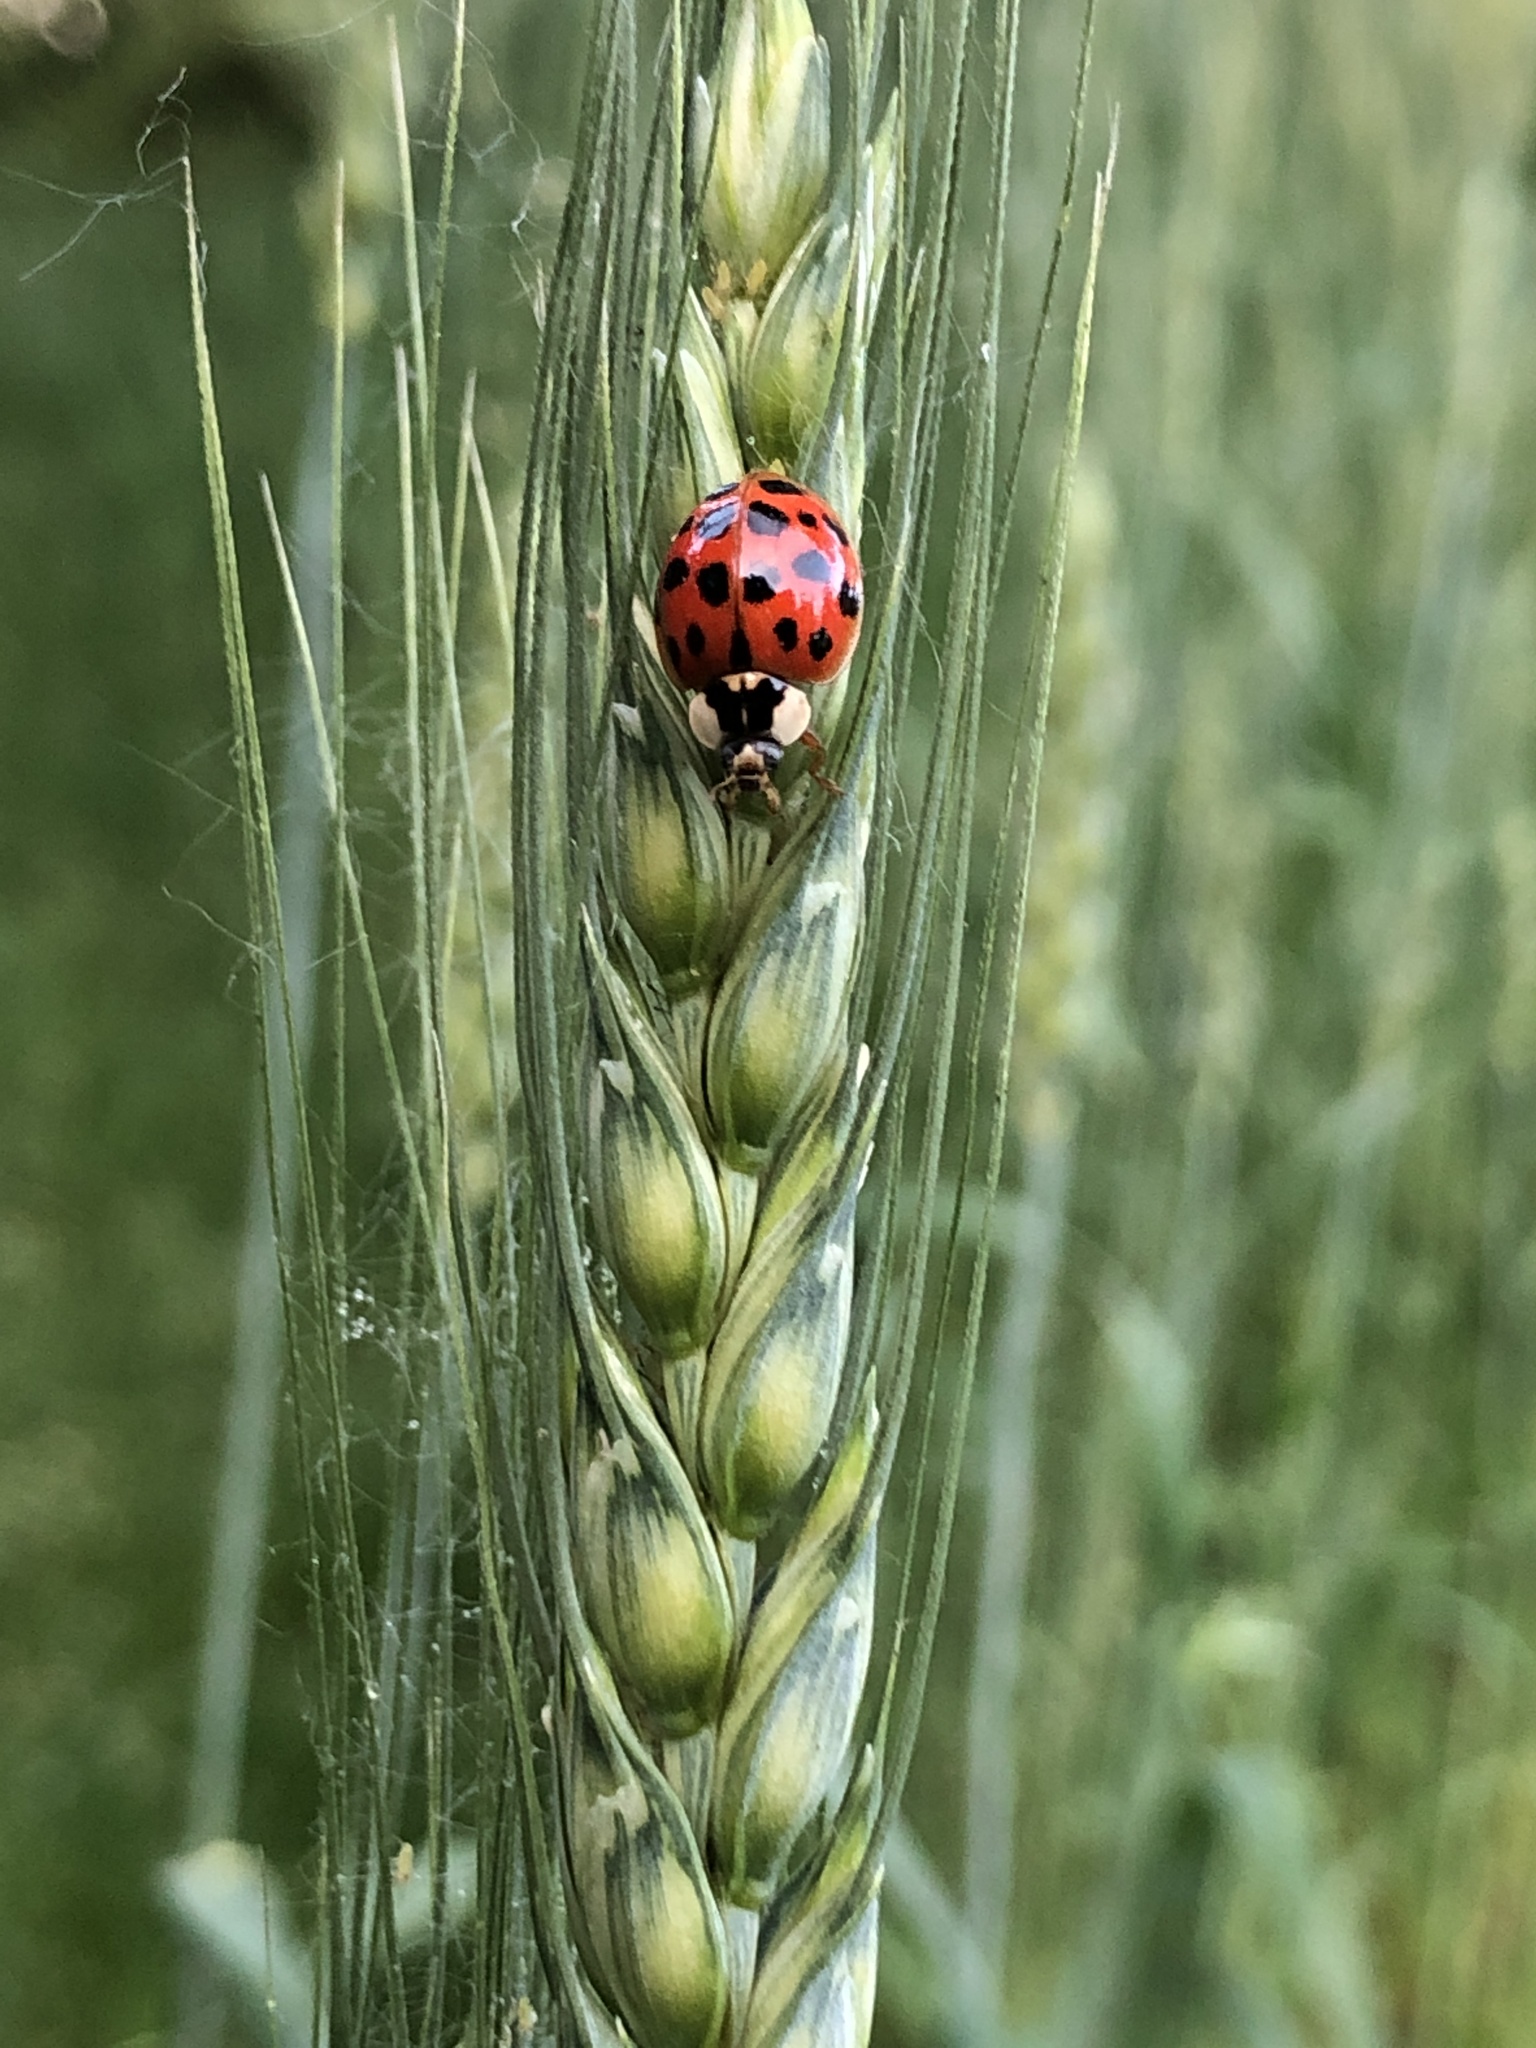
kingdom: Animalia
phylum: Arthropoda
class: Insecta
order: Coleoptera
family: Coccinellidae
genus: Harmonia
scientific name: Harmonia axyridis
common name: Harlequin ladybird
